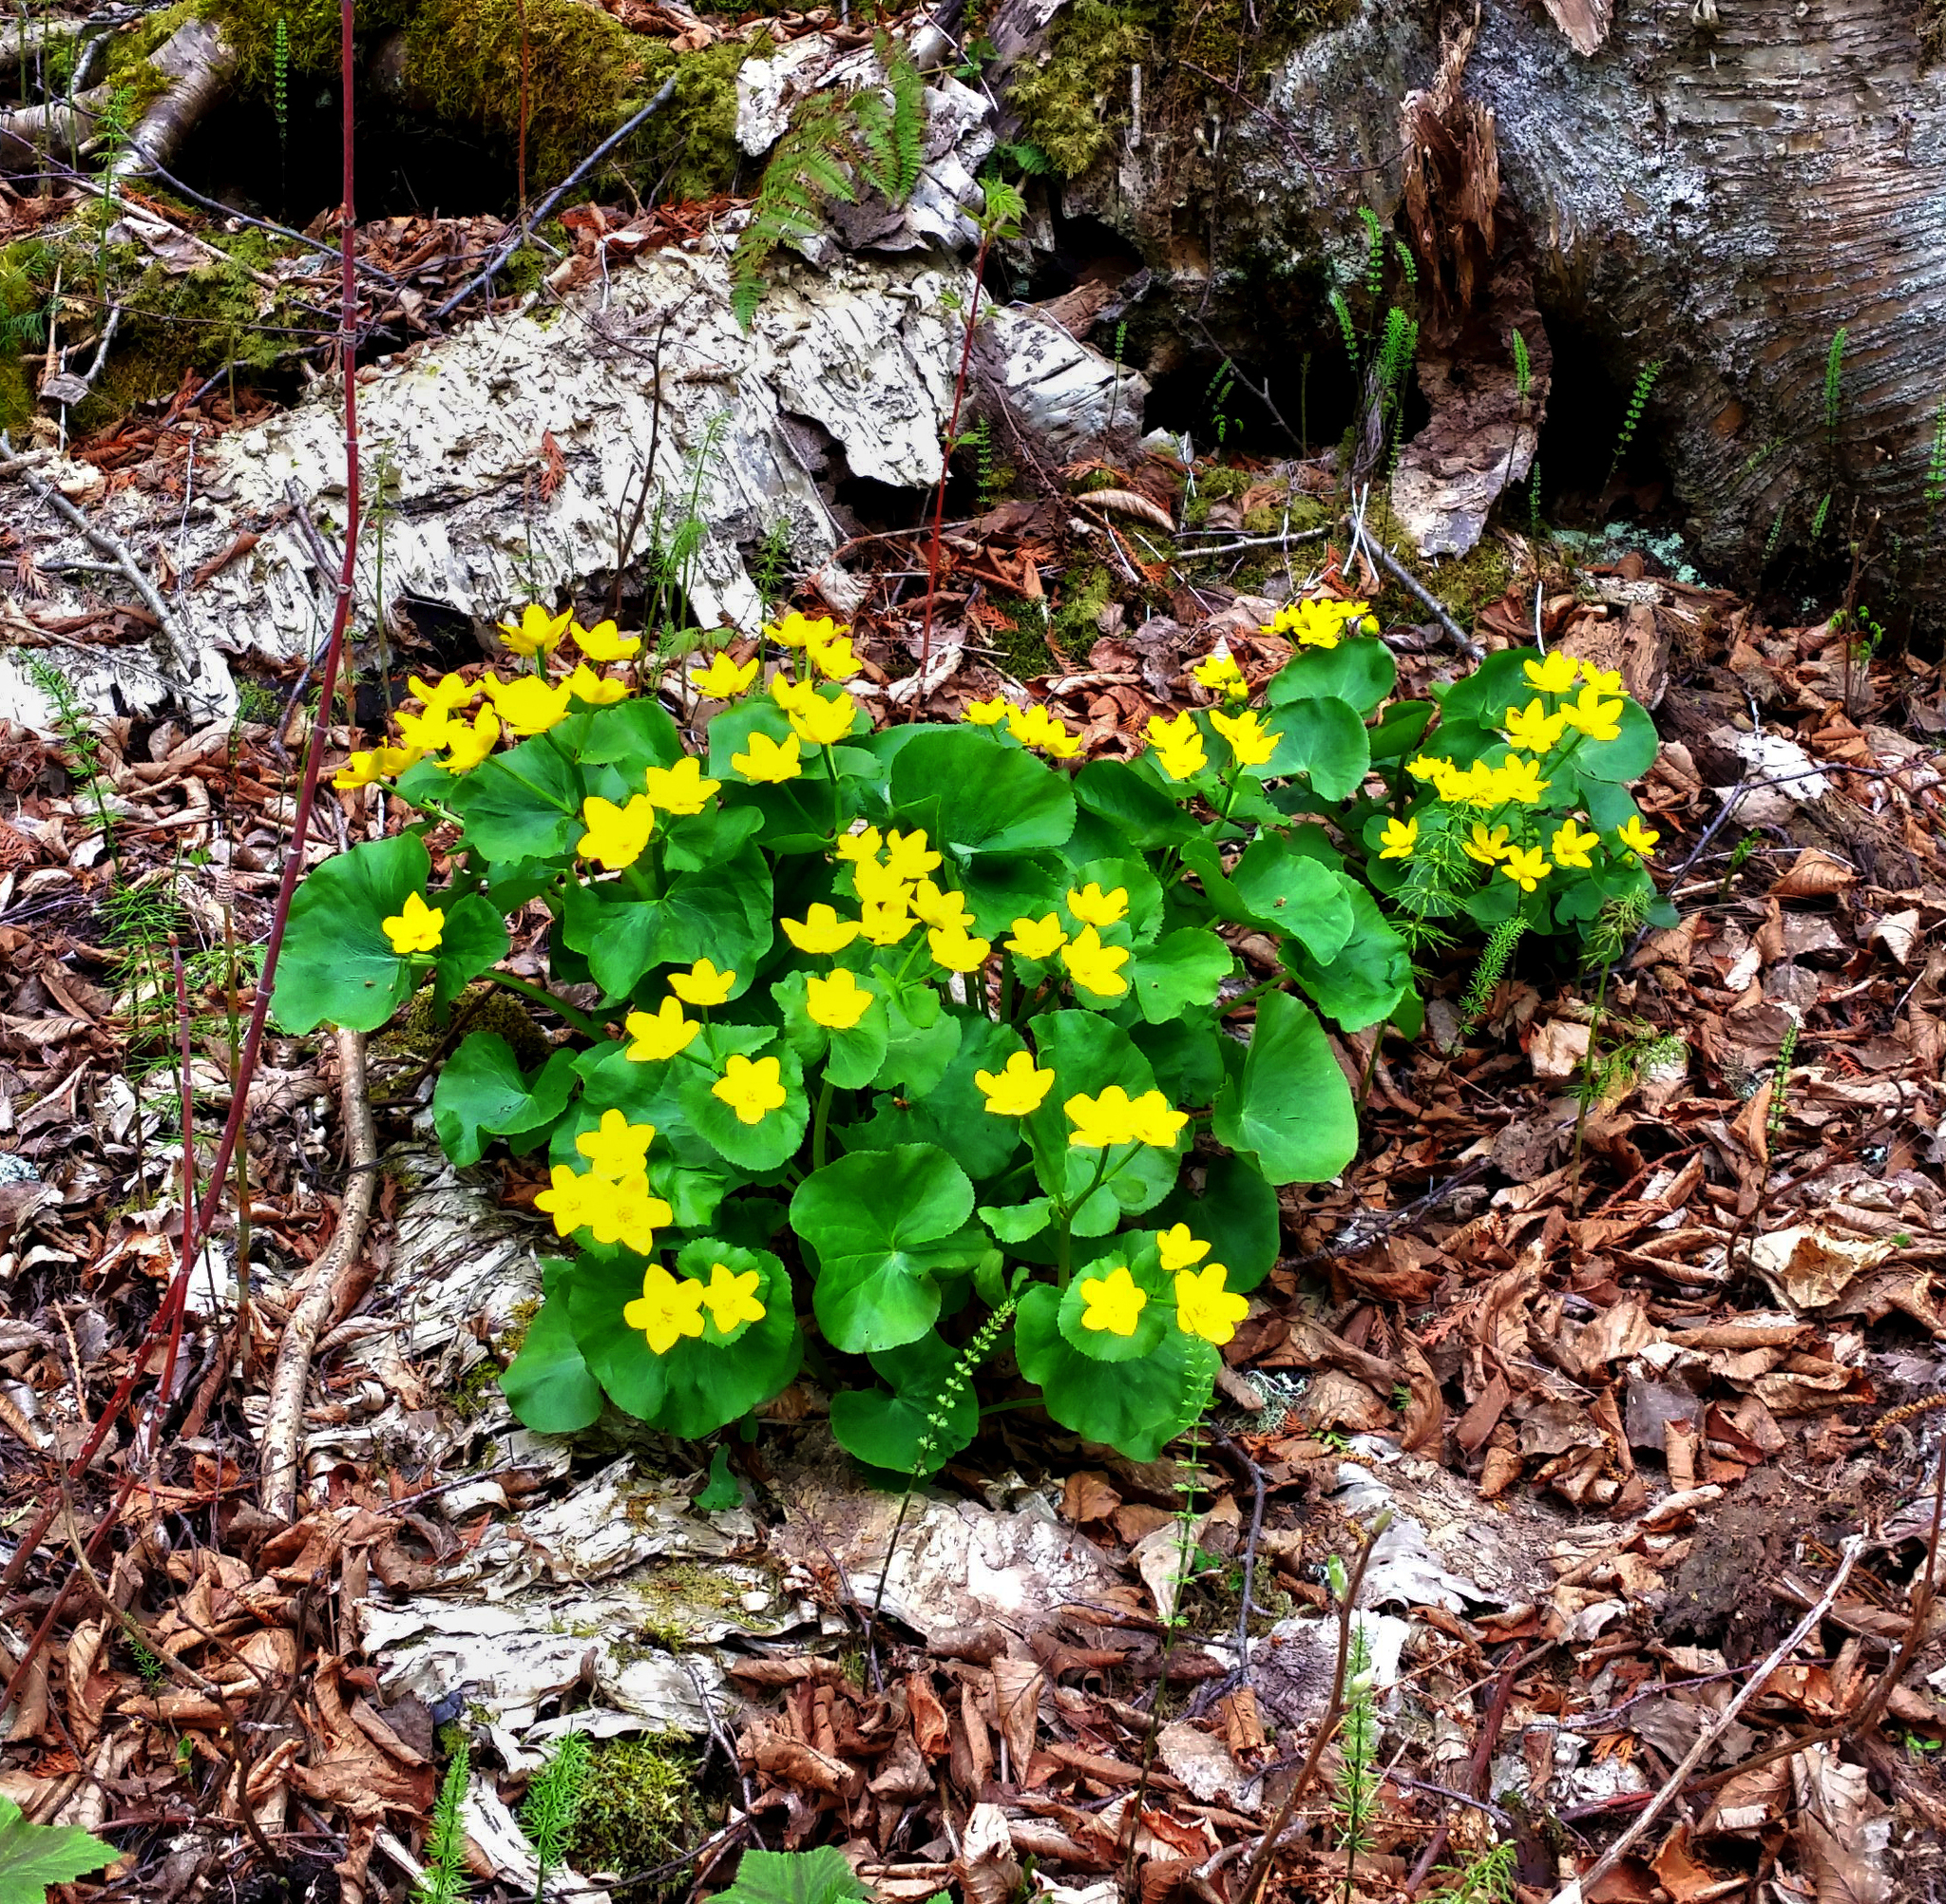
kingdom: Plantae
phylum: Tracheophyta
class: Magnoliopsida
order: Ranunculales
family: Ranunculaceae
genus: Caltha
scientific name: Caltha palustris
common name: Marsh marigold
